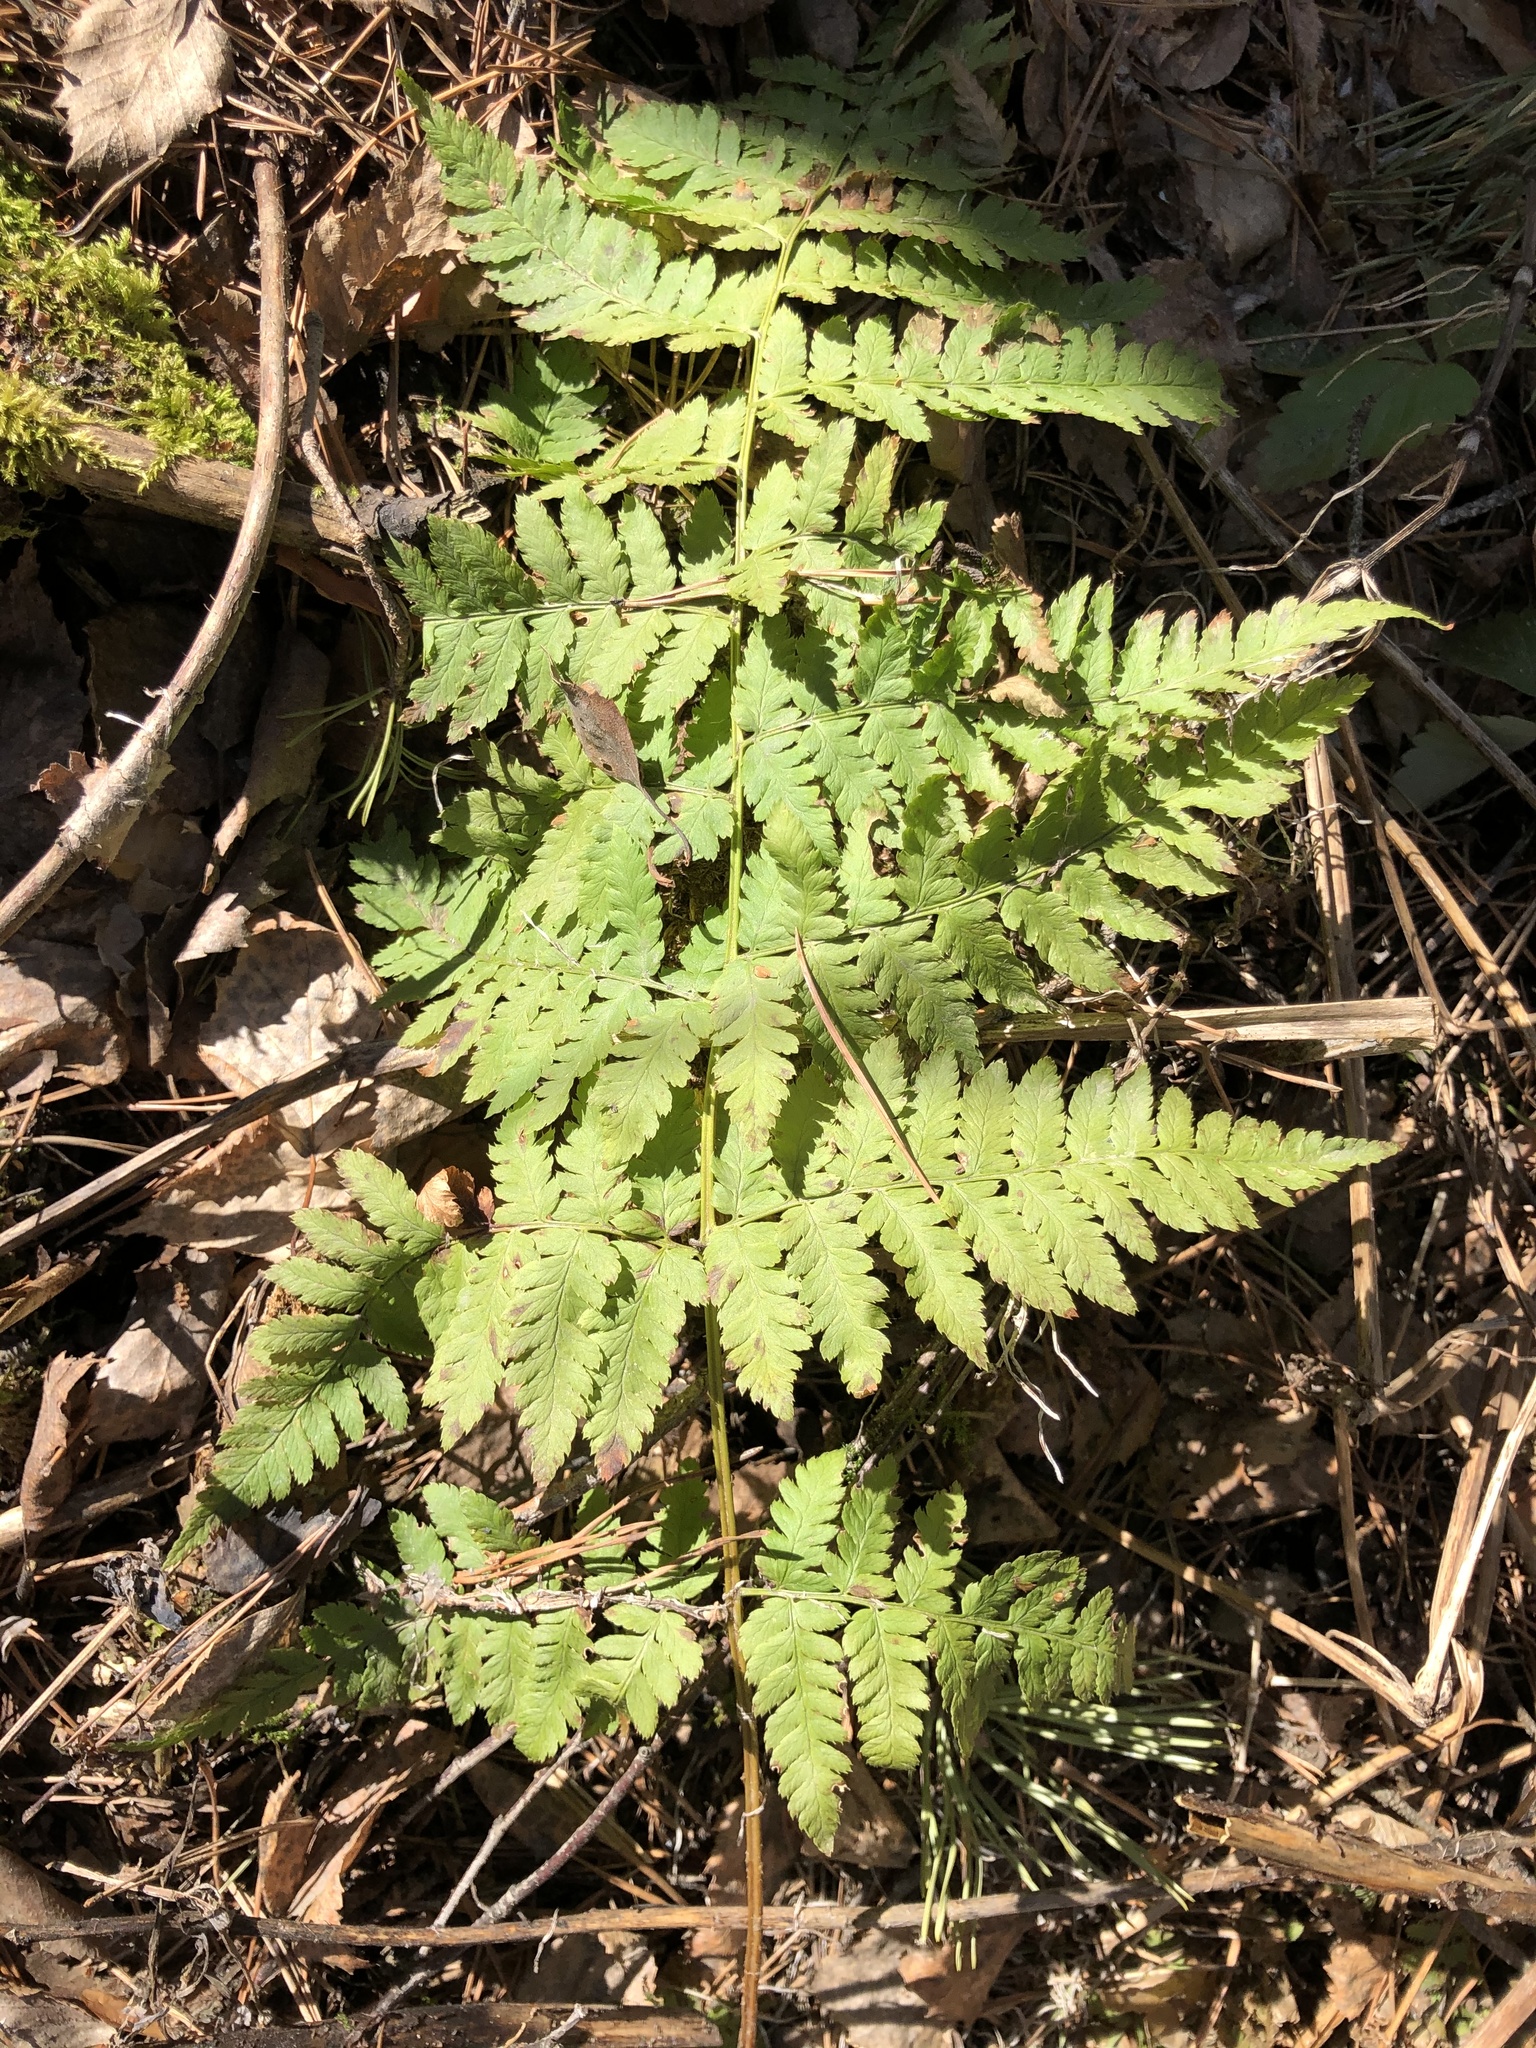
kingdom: Plantae
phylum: Tracheophyta
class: Polypodiopsida
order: Polypodiales
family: Dryopteridaceae
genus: Dryopteris
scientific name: Dryopteris carthusiana
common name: Narrow buckler-fern
